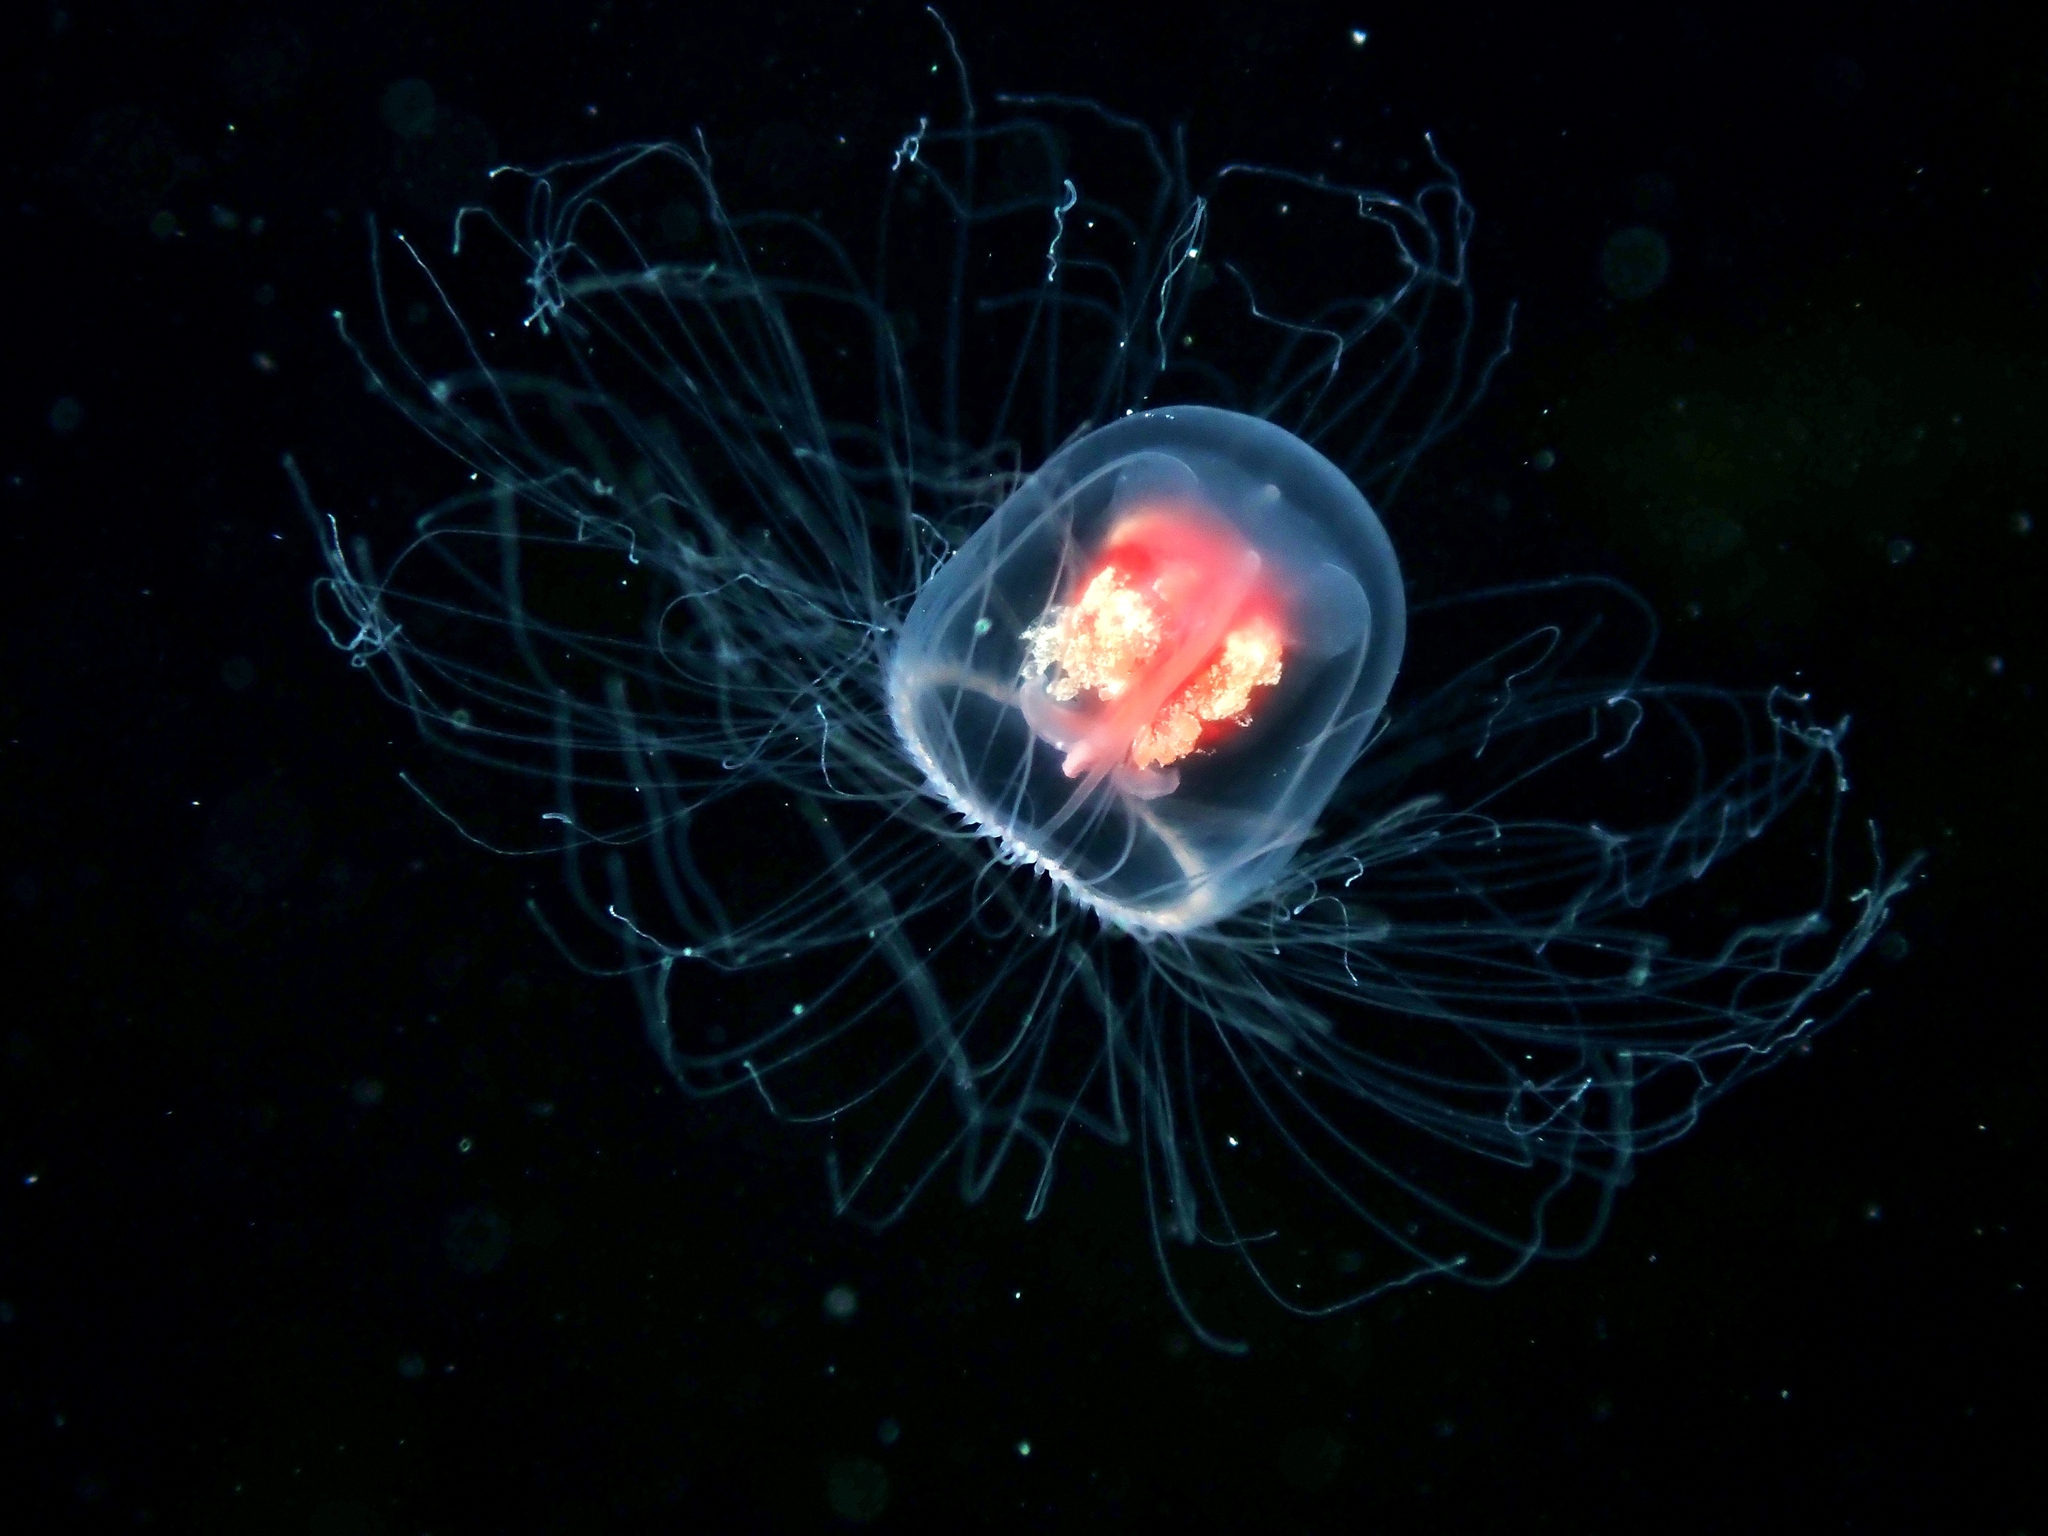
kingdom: Animalia
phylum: Cnidaria
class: Hydrozoa
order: Anthoathecata
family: Oceaniidae
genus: Turritopsis
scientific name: Turritopsis rubra
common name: Crimson jelly
